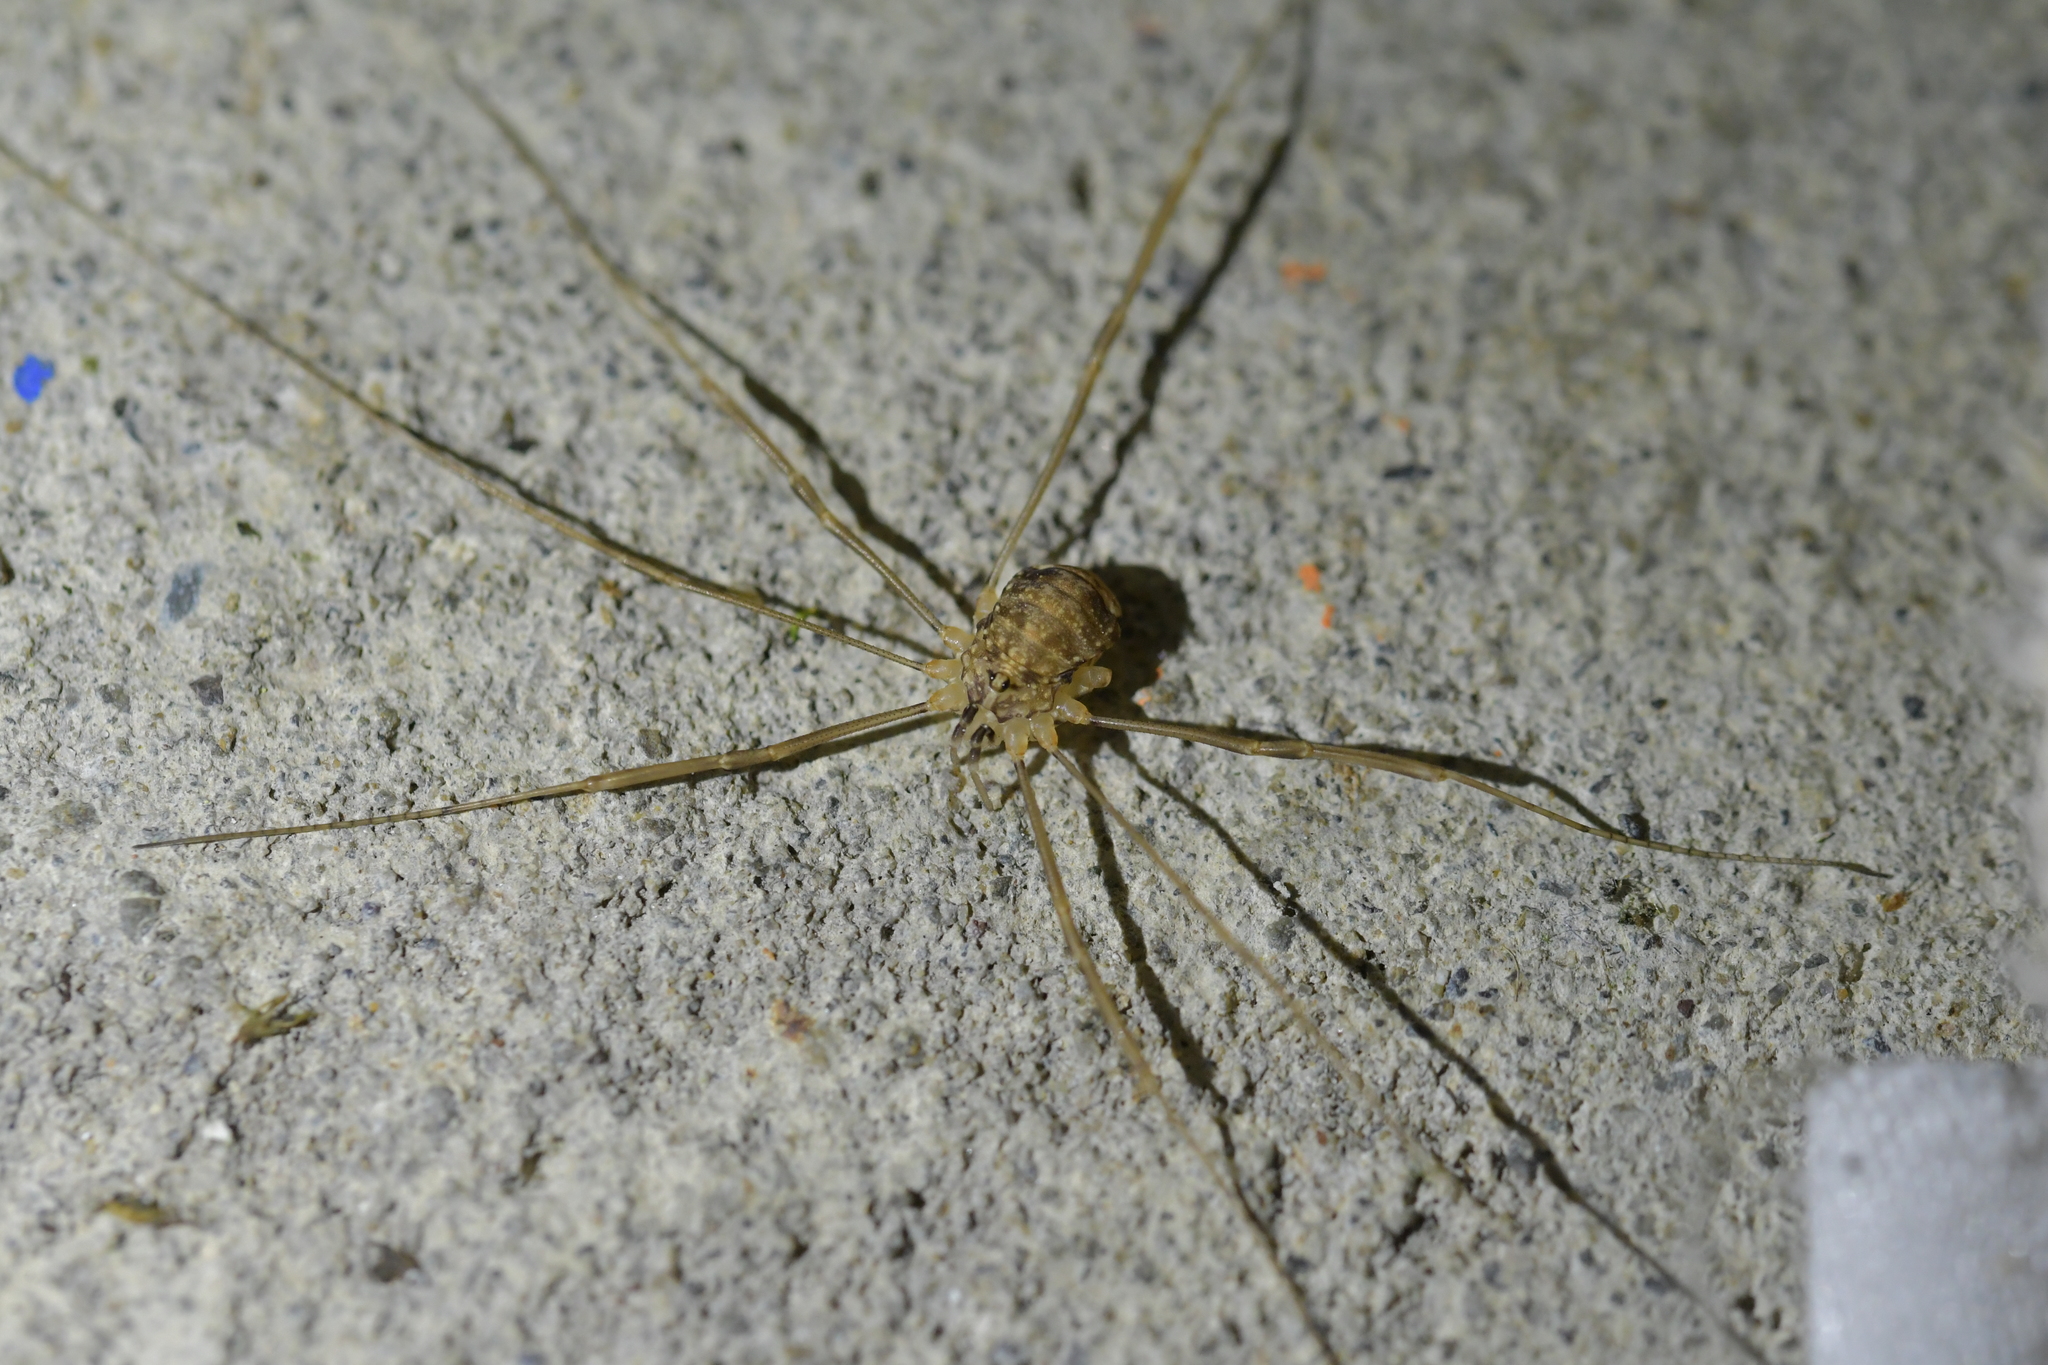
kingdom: Animalia
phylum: Arthropoda
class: Arachnida
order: Opiliones
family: Sclerosomatidae
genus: Nelima
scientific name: Nelima doriae
